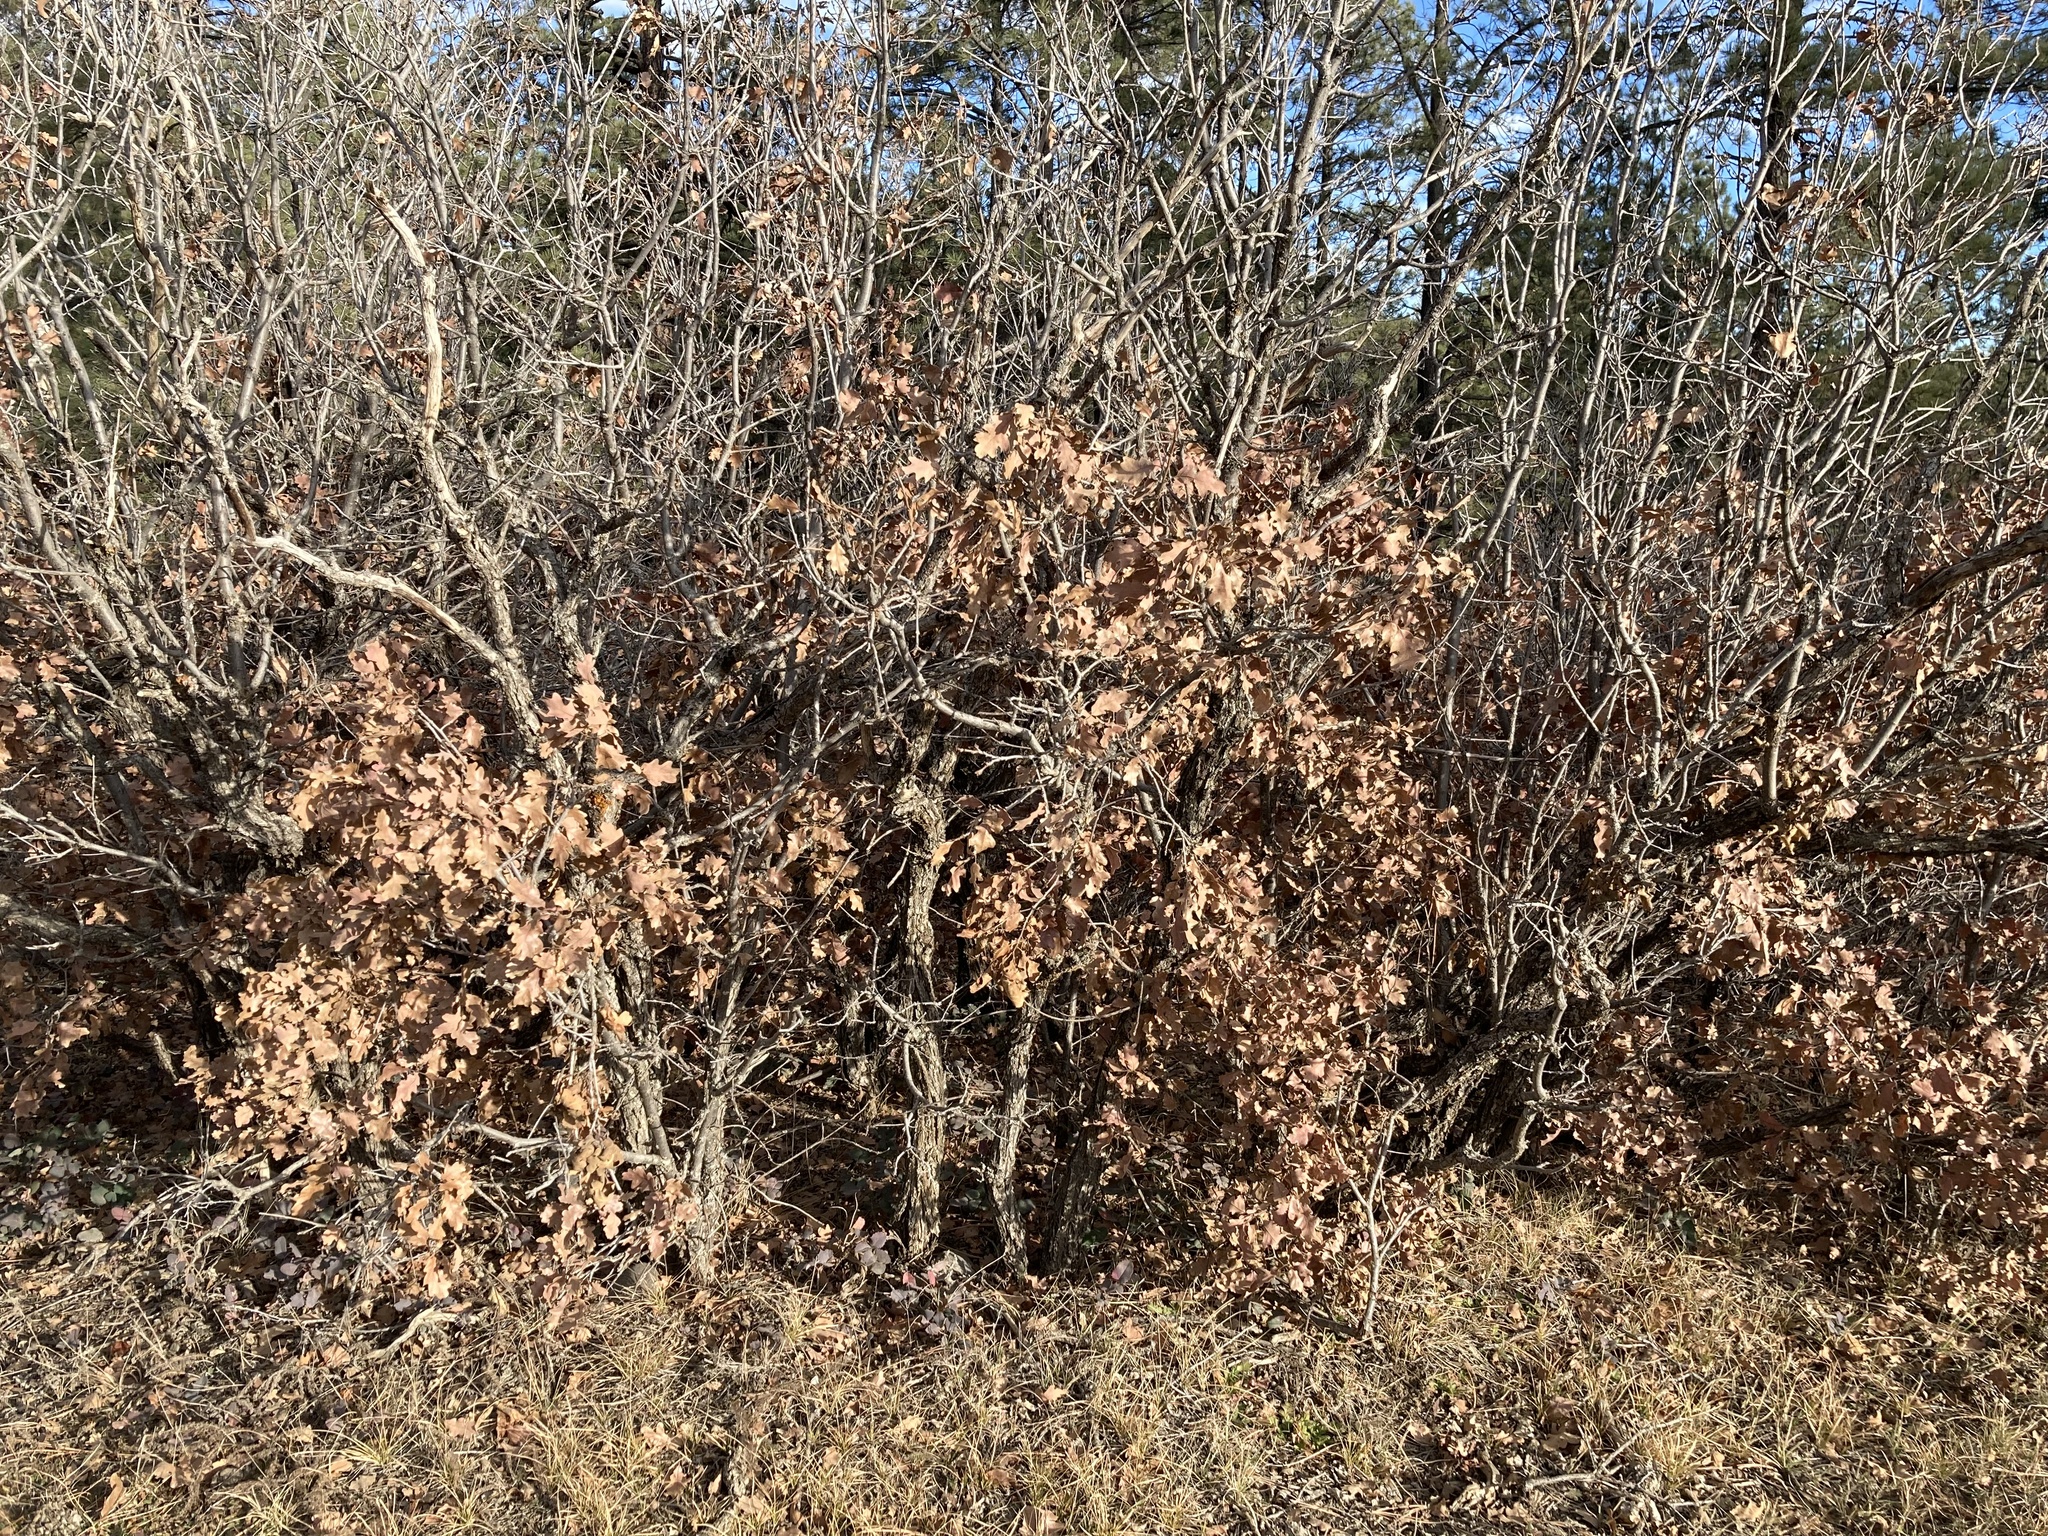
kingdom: Plantae
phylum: Tracheophyta
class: Magnoliopsida
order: Fagales
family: Fagaceae
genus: Quercus
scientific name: Quercus gambelii
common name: Gambel oak
